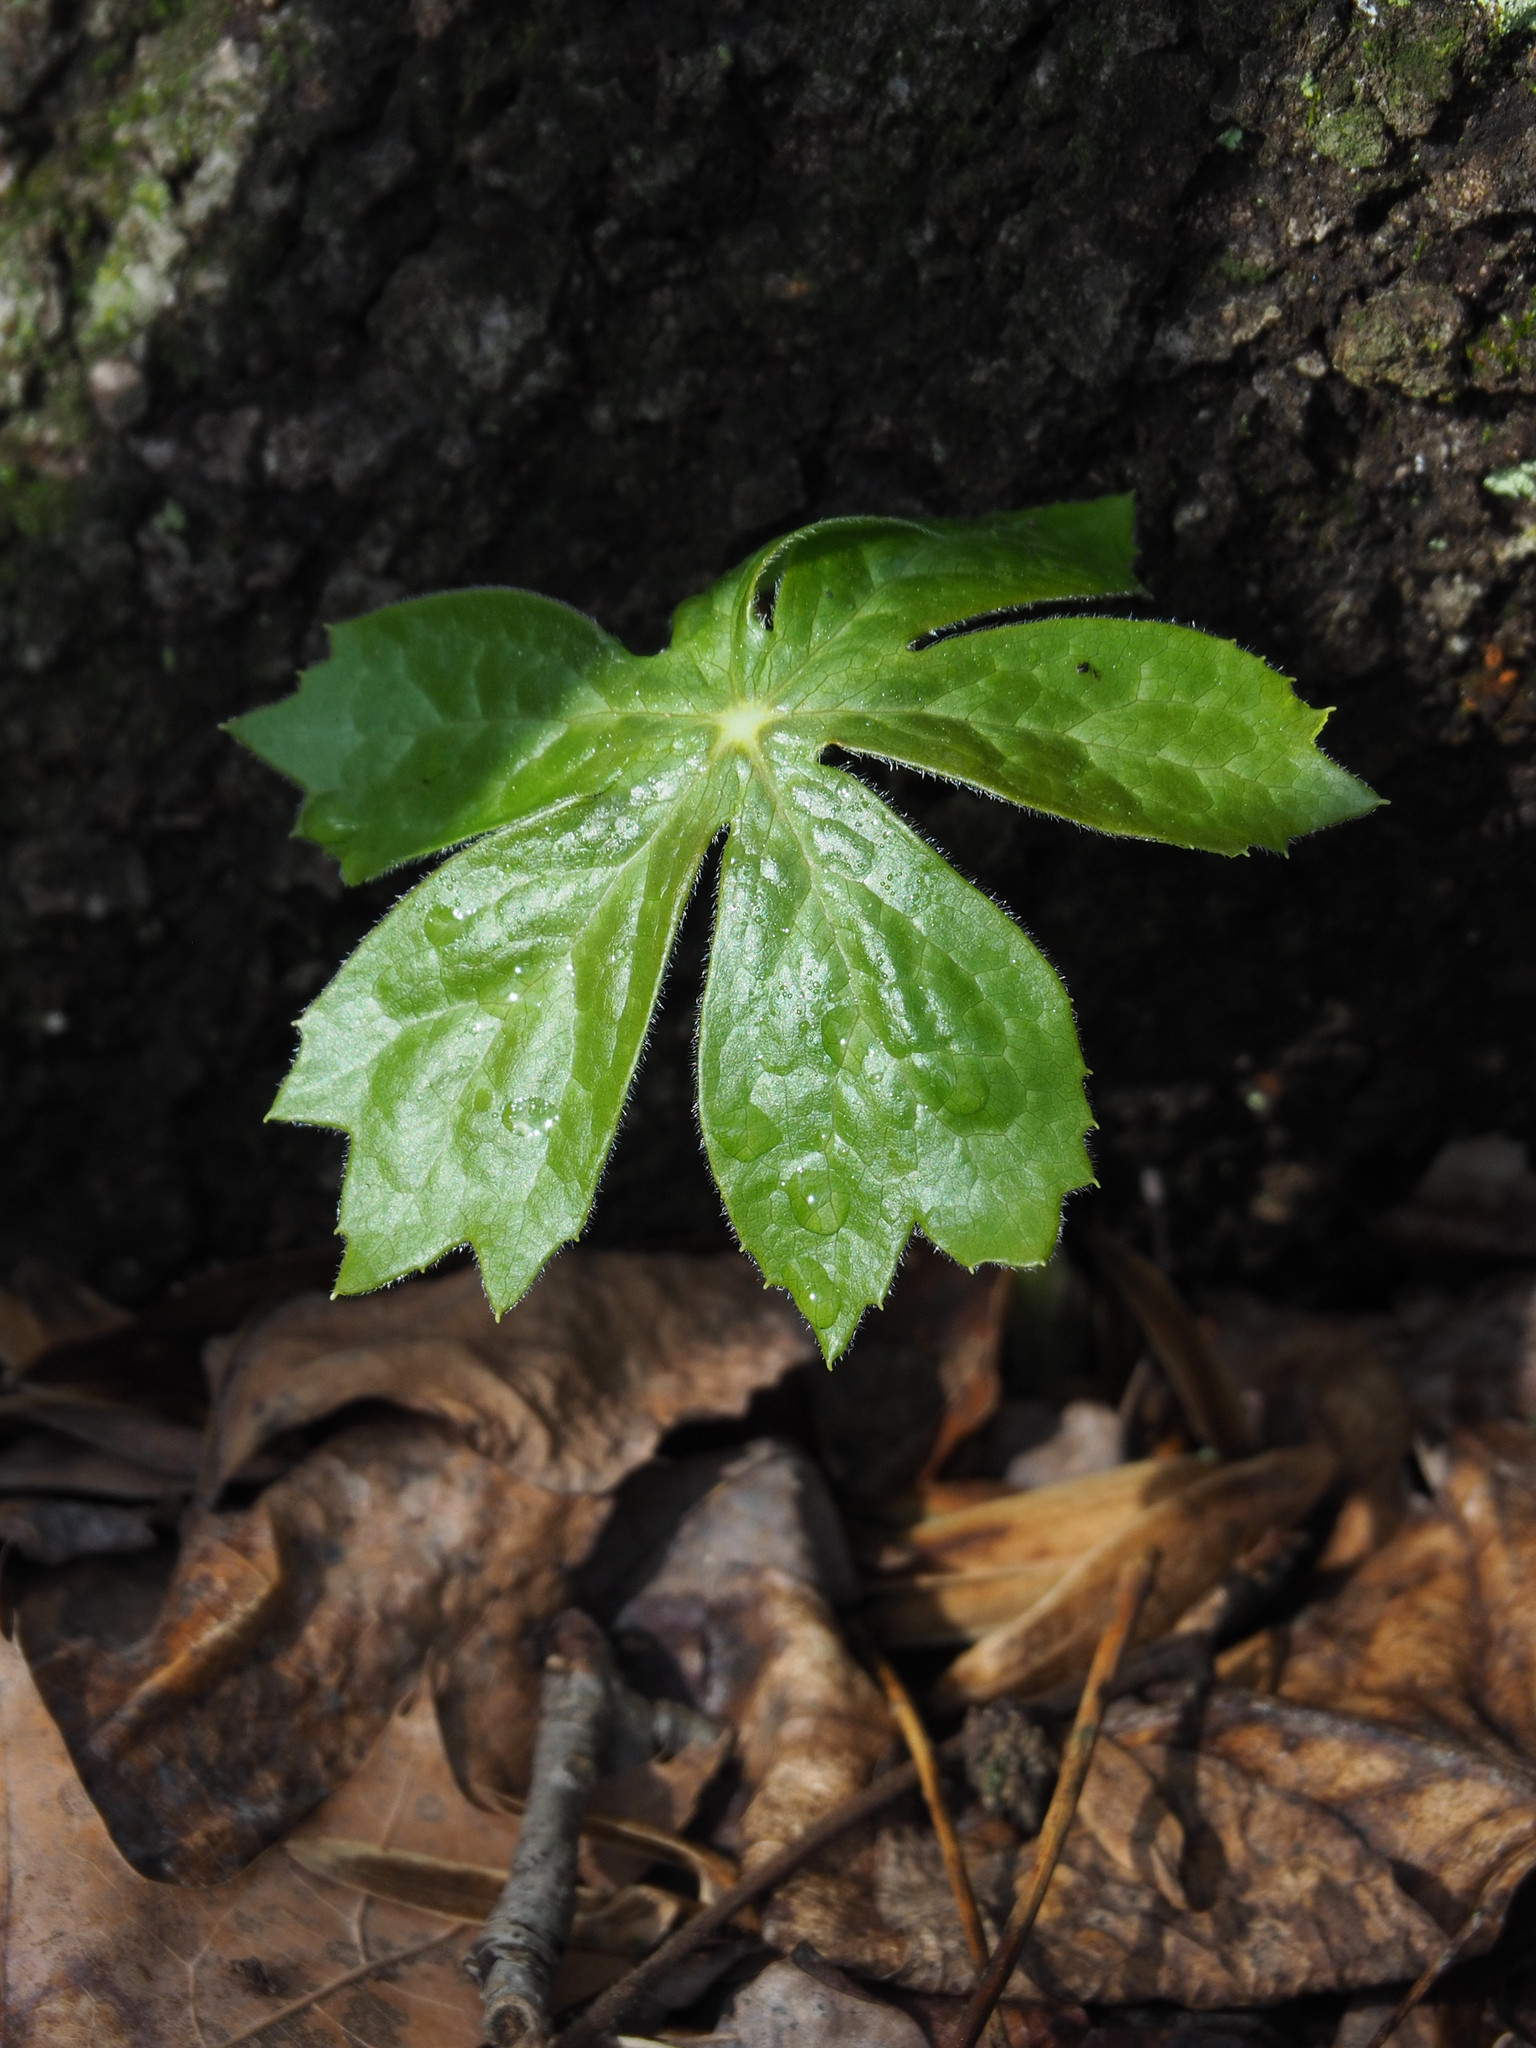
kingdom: Plantae
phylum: Tracheophyta
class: Magnoliopsida
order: Ranunculales
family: Berberidaceae
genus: Podophyllum
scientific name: Podophyllum peltatum
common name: Wild mandrake
